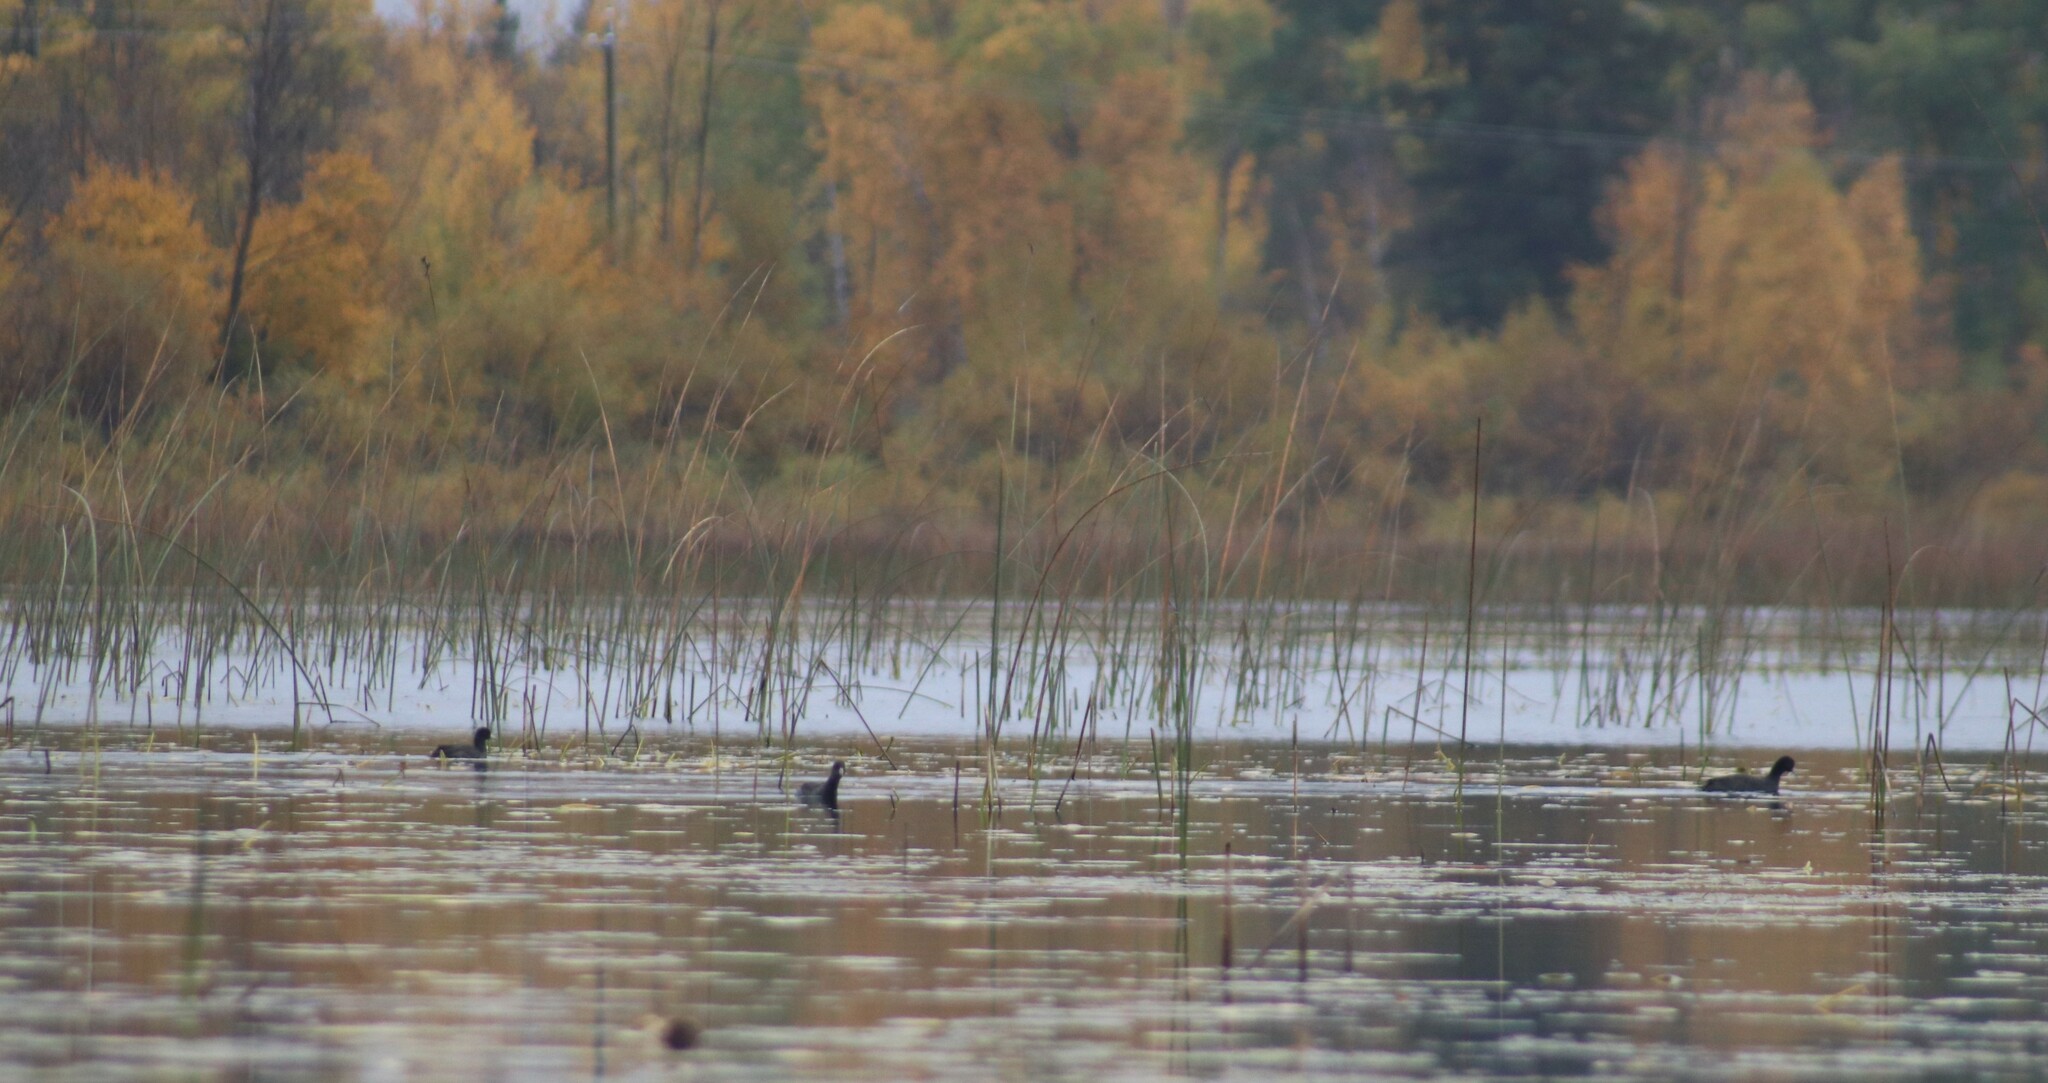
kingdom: Animalia
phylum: Chordata
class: Aves
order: Gruiformes
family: Rallidae
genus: Fulica
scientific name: Fulica americana
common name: American coot
